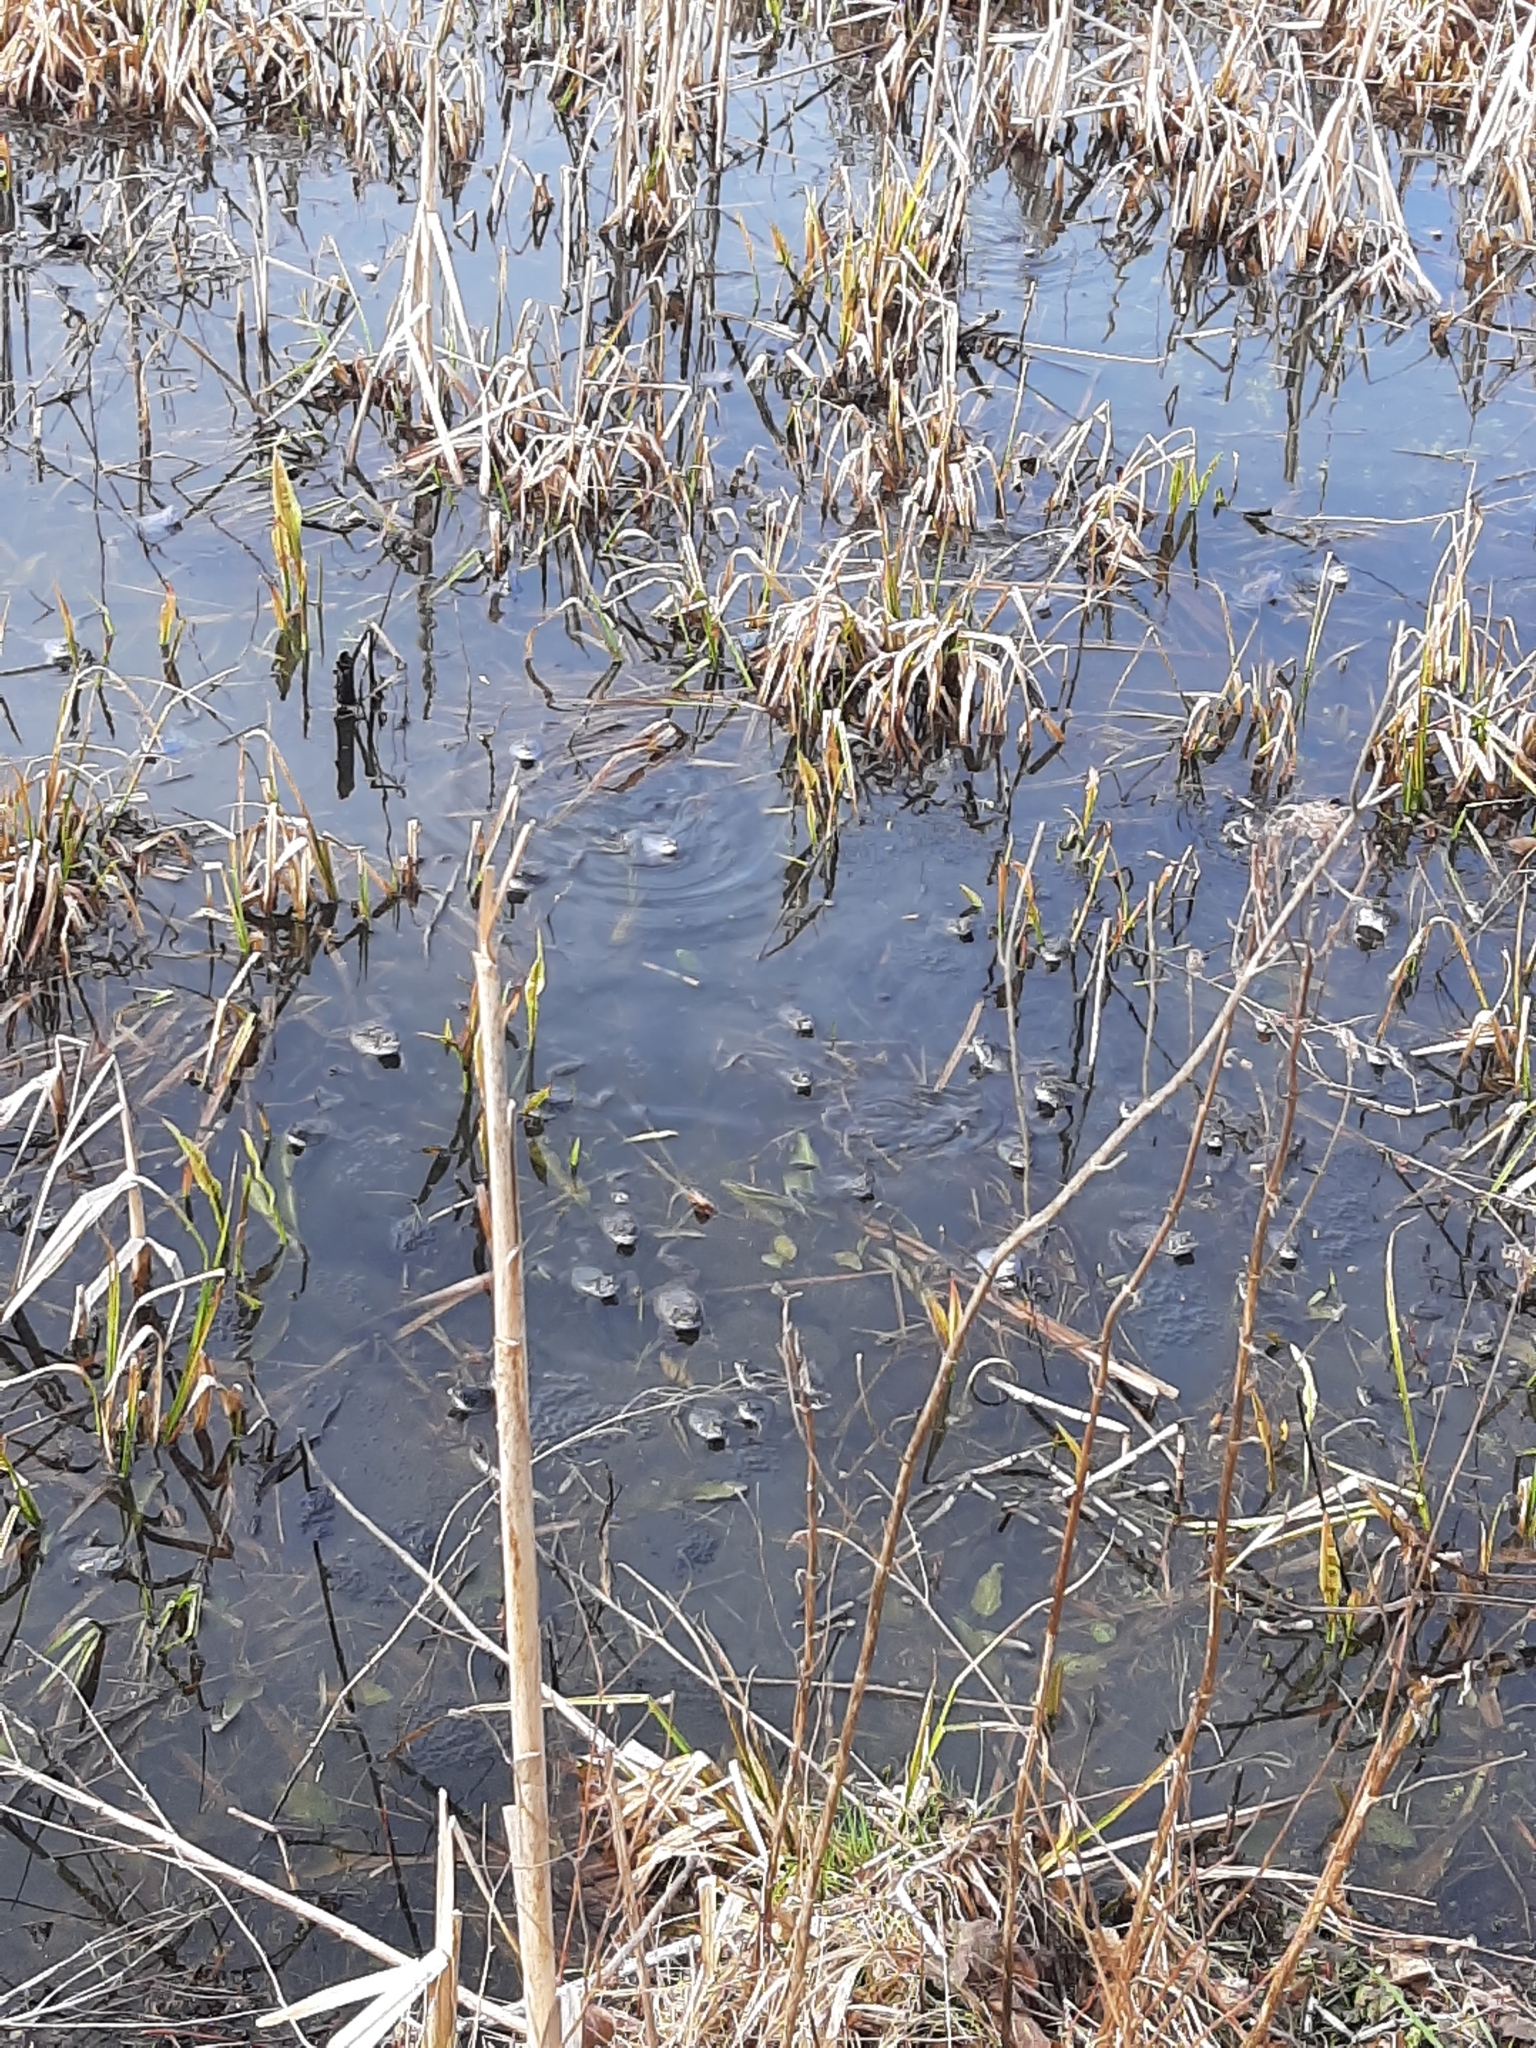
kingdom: Animalia
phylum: Chordata
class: Amphibia
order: Anura
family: Ranidae
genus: Rana
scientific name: Rana arvalis
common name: Moor frog
